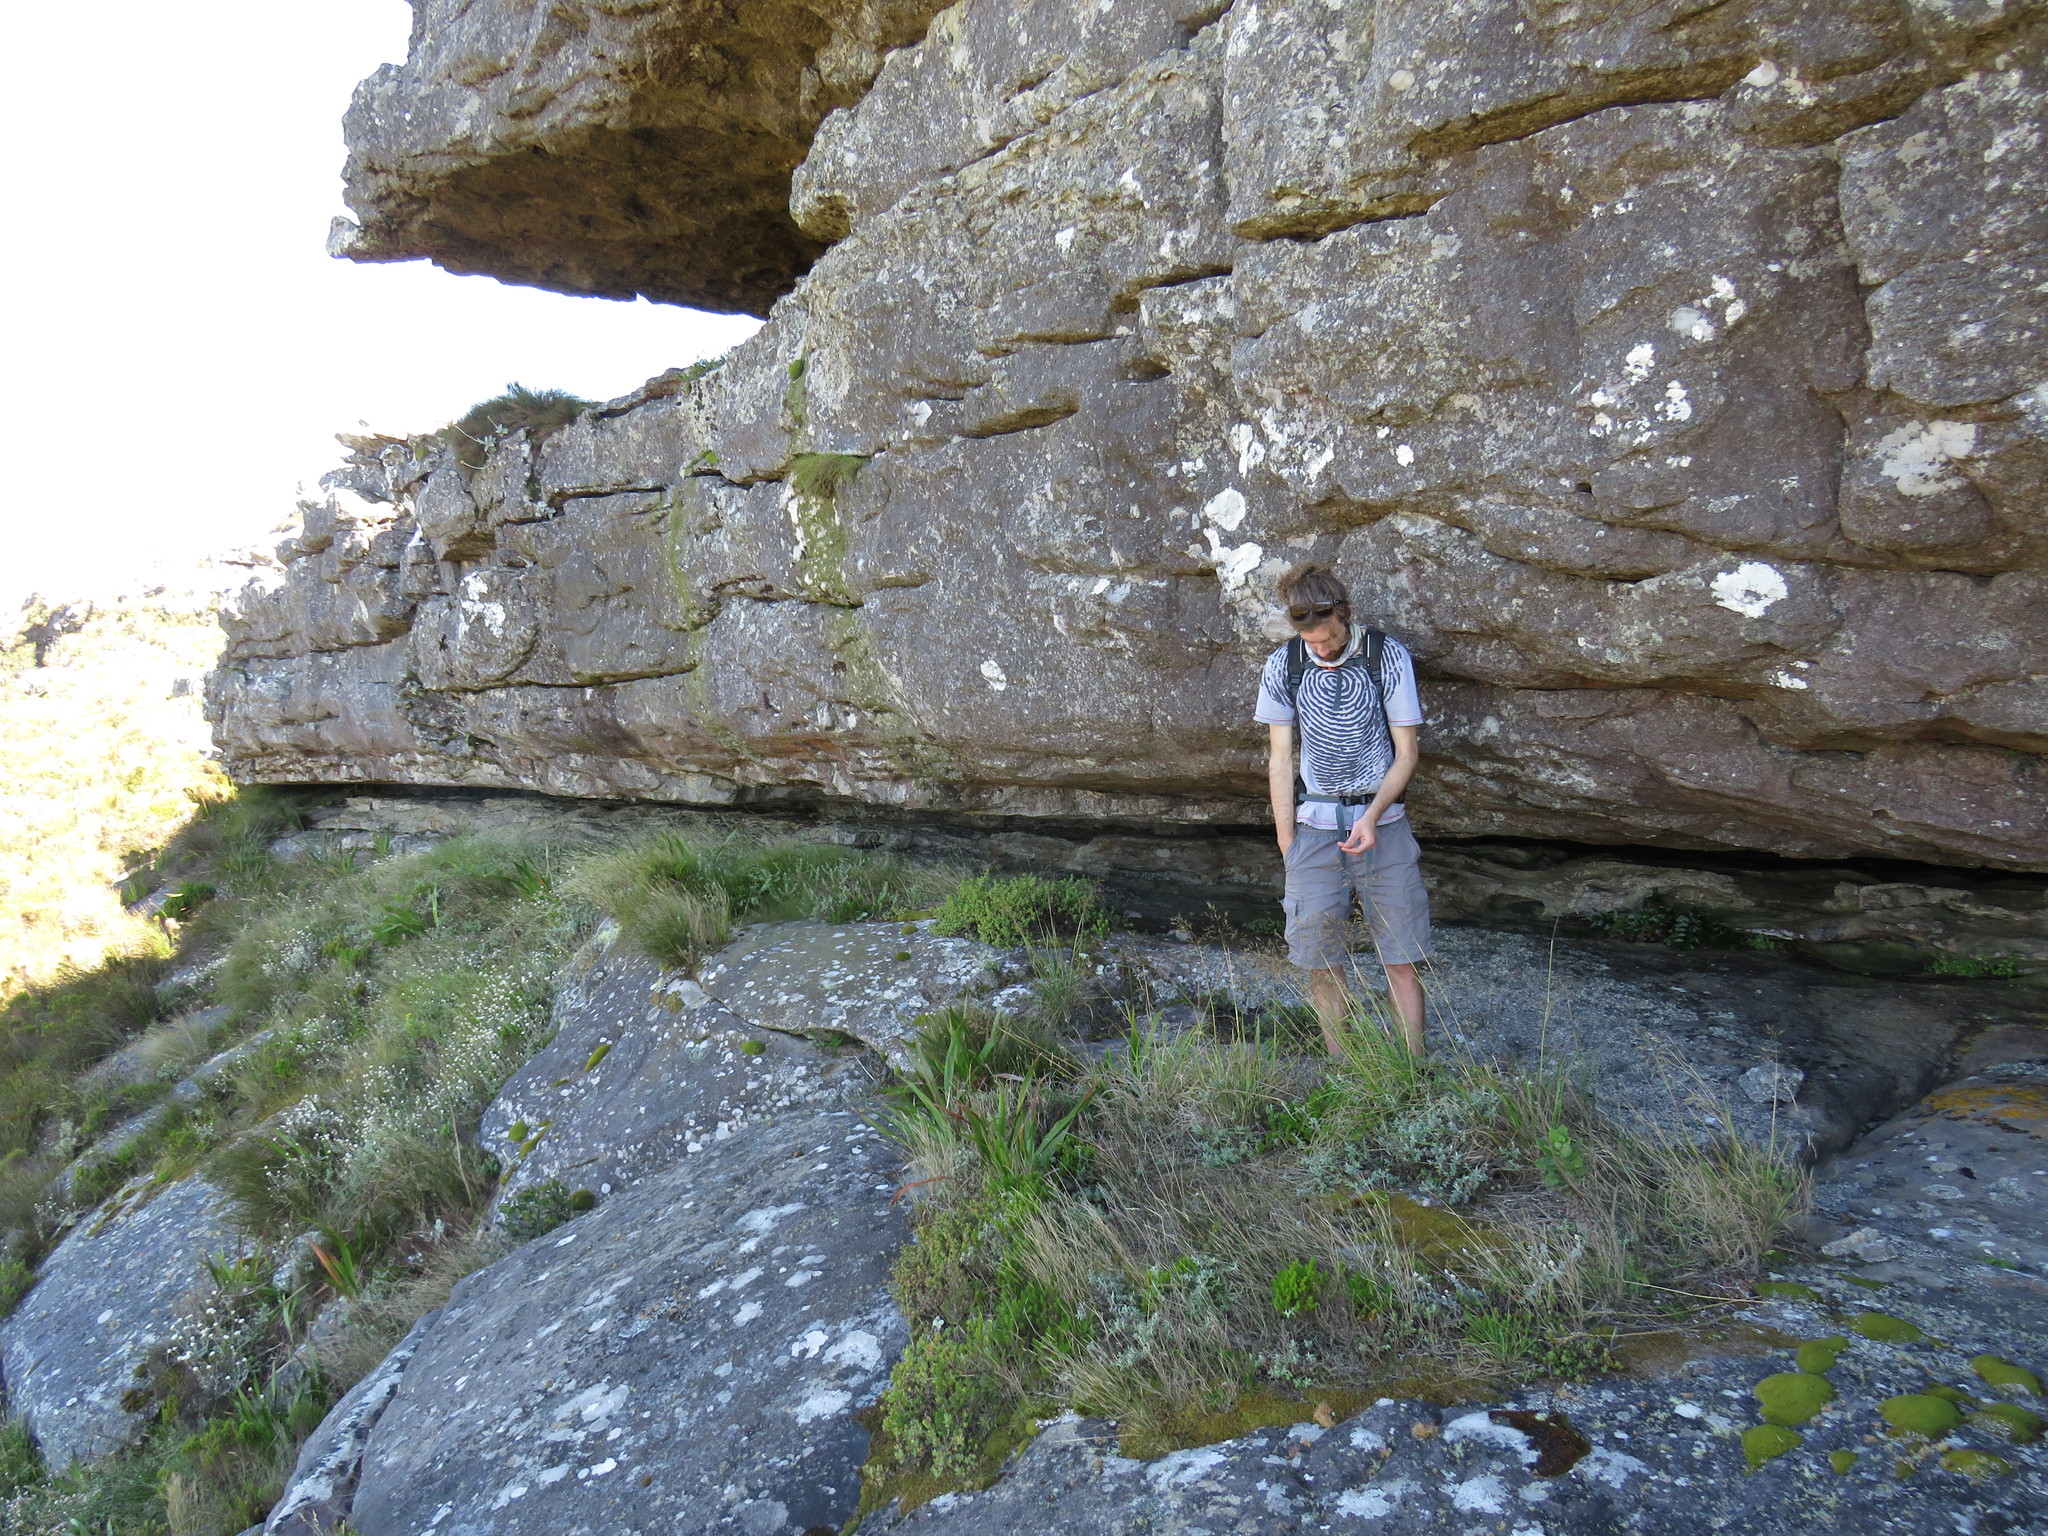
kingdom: Plantae
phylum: Tracheophyta
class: Polypodiopsida
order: Polypodiales
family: Dryopteridaceae
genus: Cyrtomium
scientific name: Cyrtomium falcatum
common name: House holly-fern
